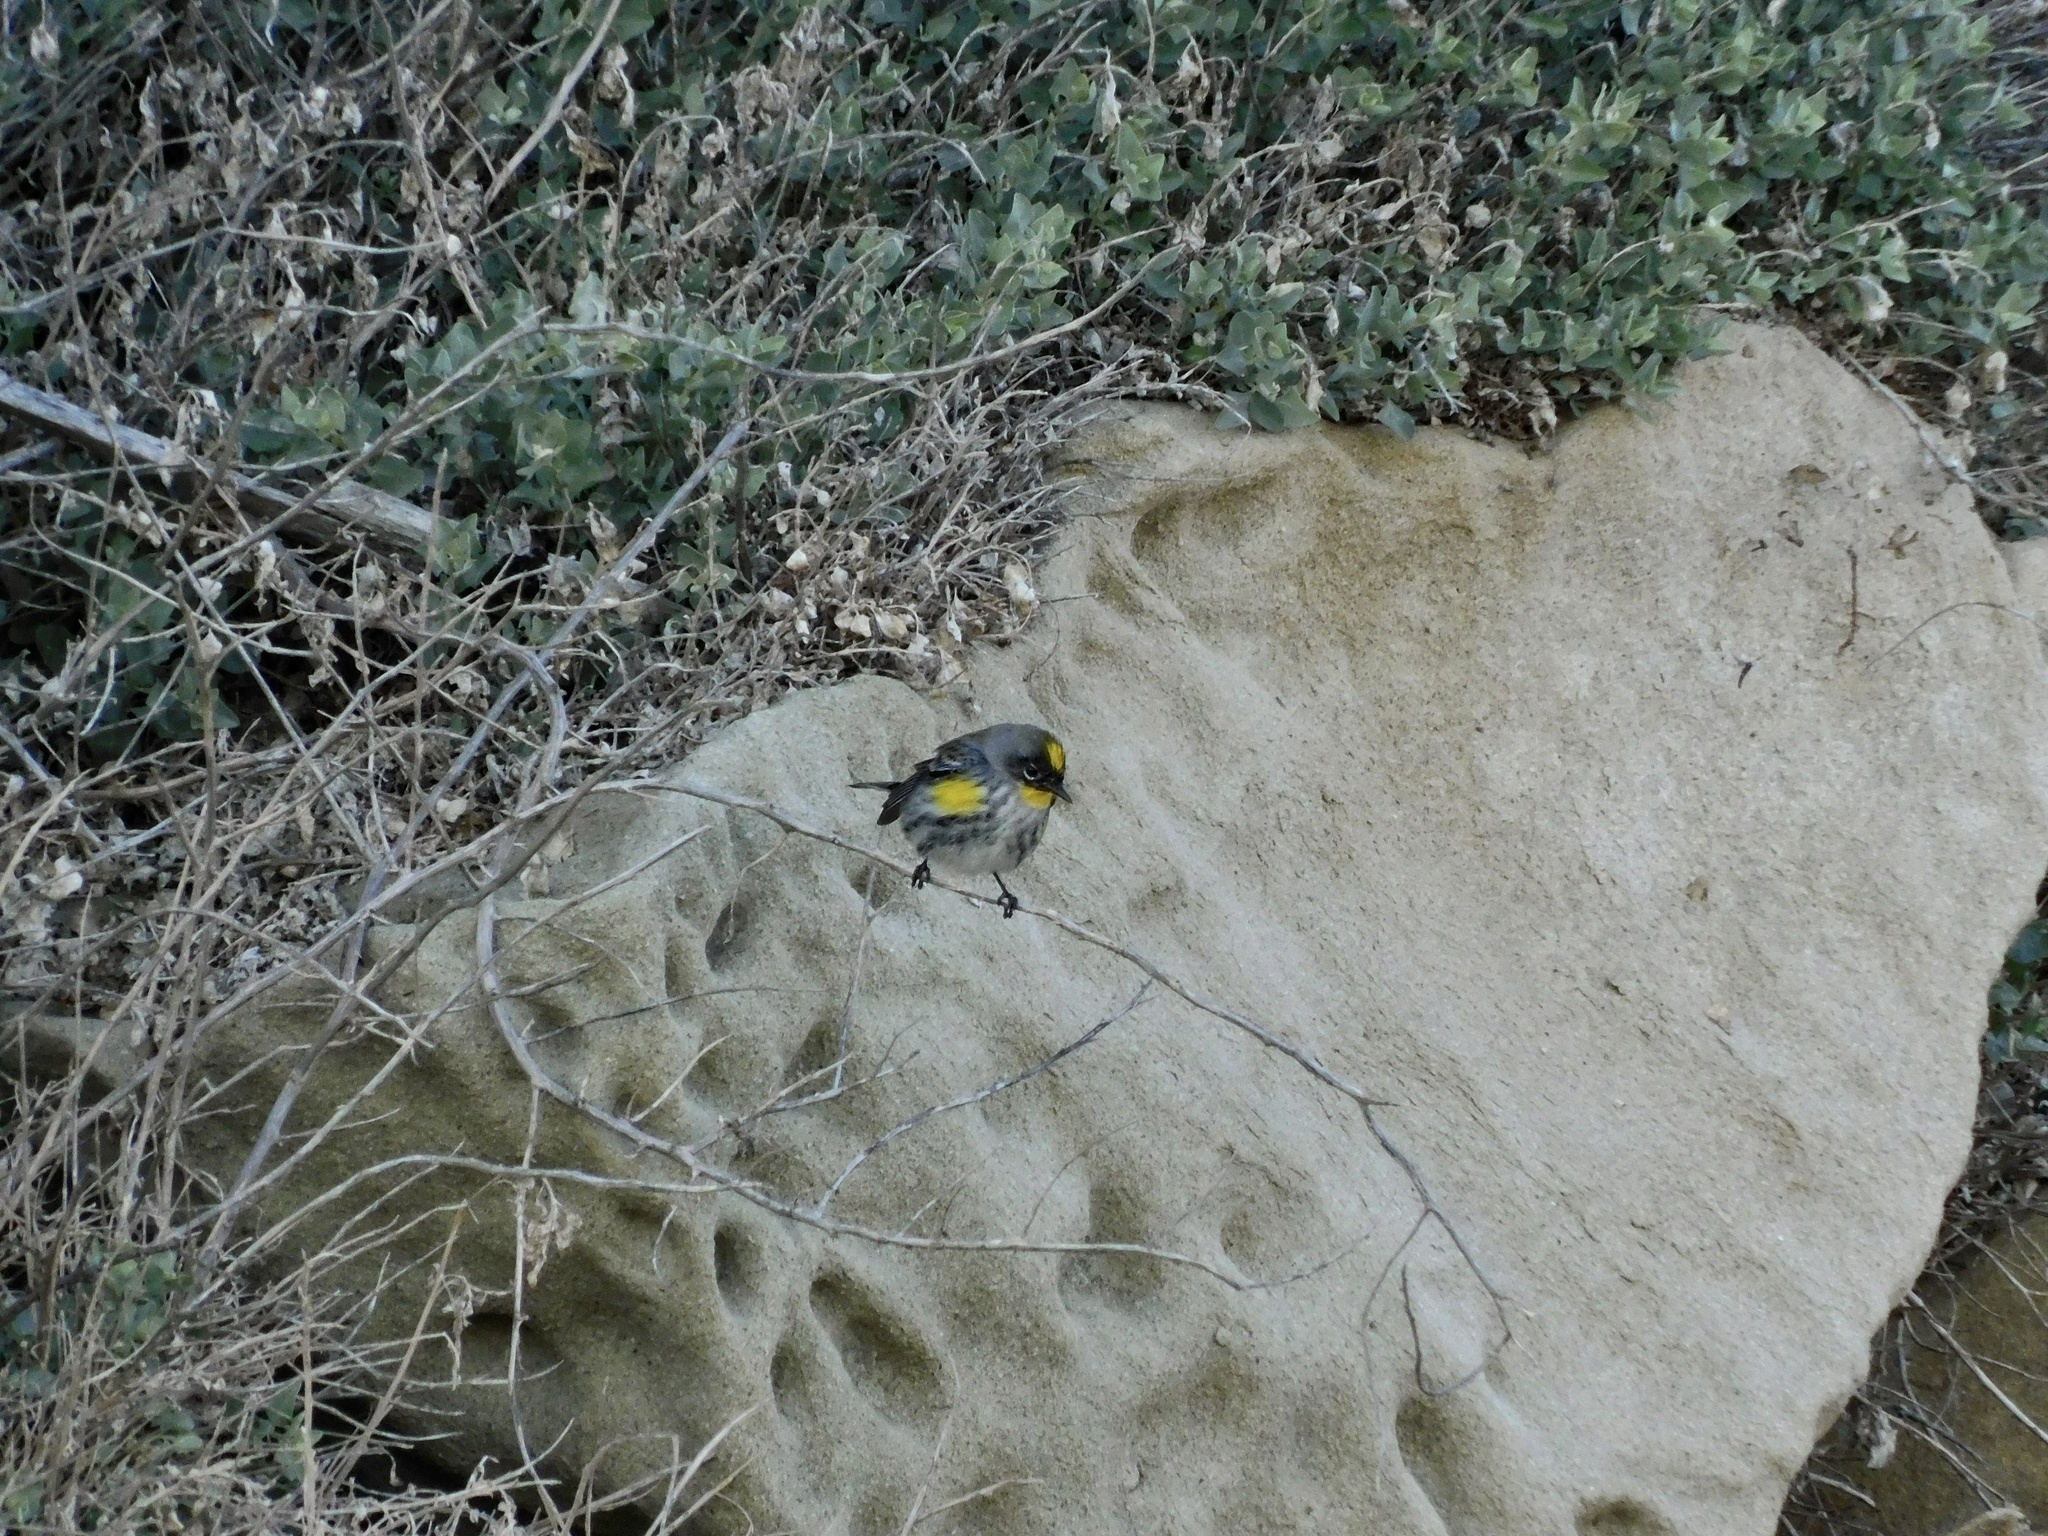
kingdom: Animalia
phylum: Chordata
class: Aves
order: Passeriformes
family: Parulidae
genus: Setophaga
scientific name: Setophaga coronata
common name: Myrtle warbler
